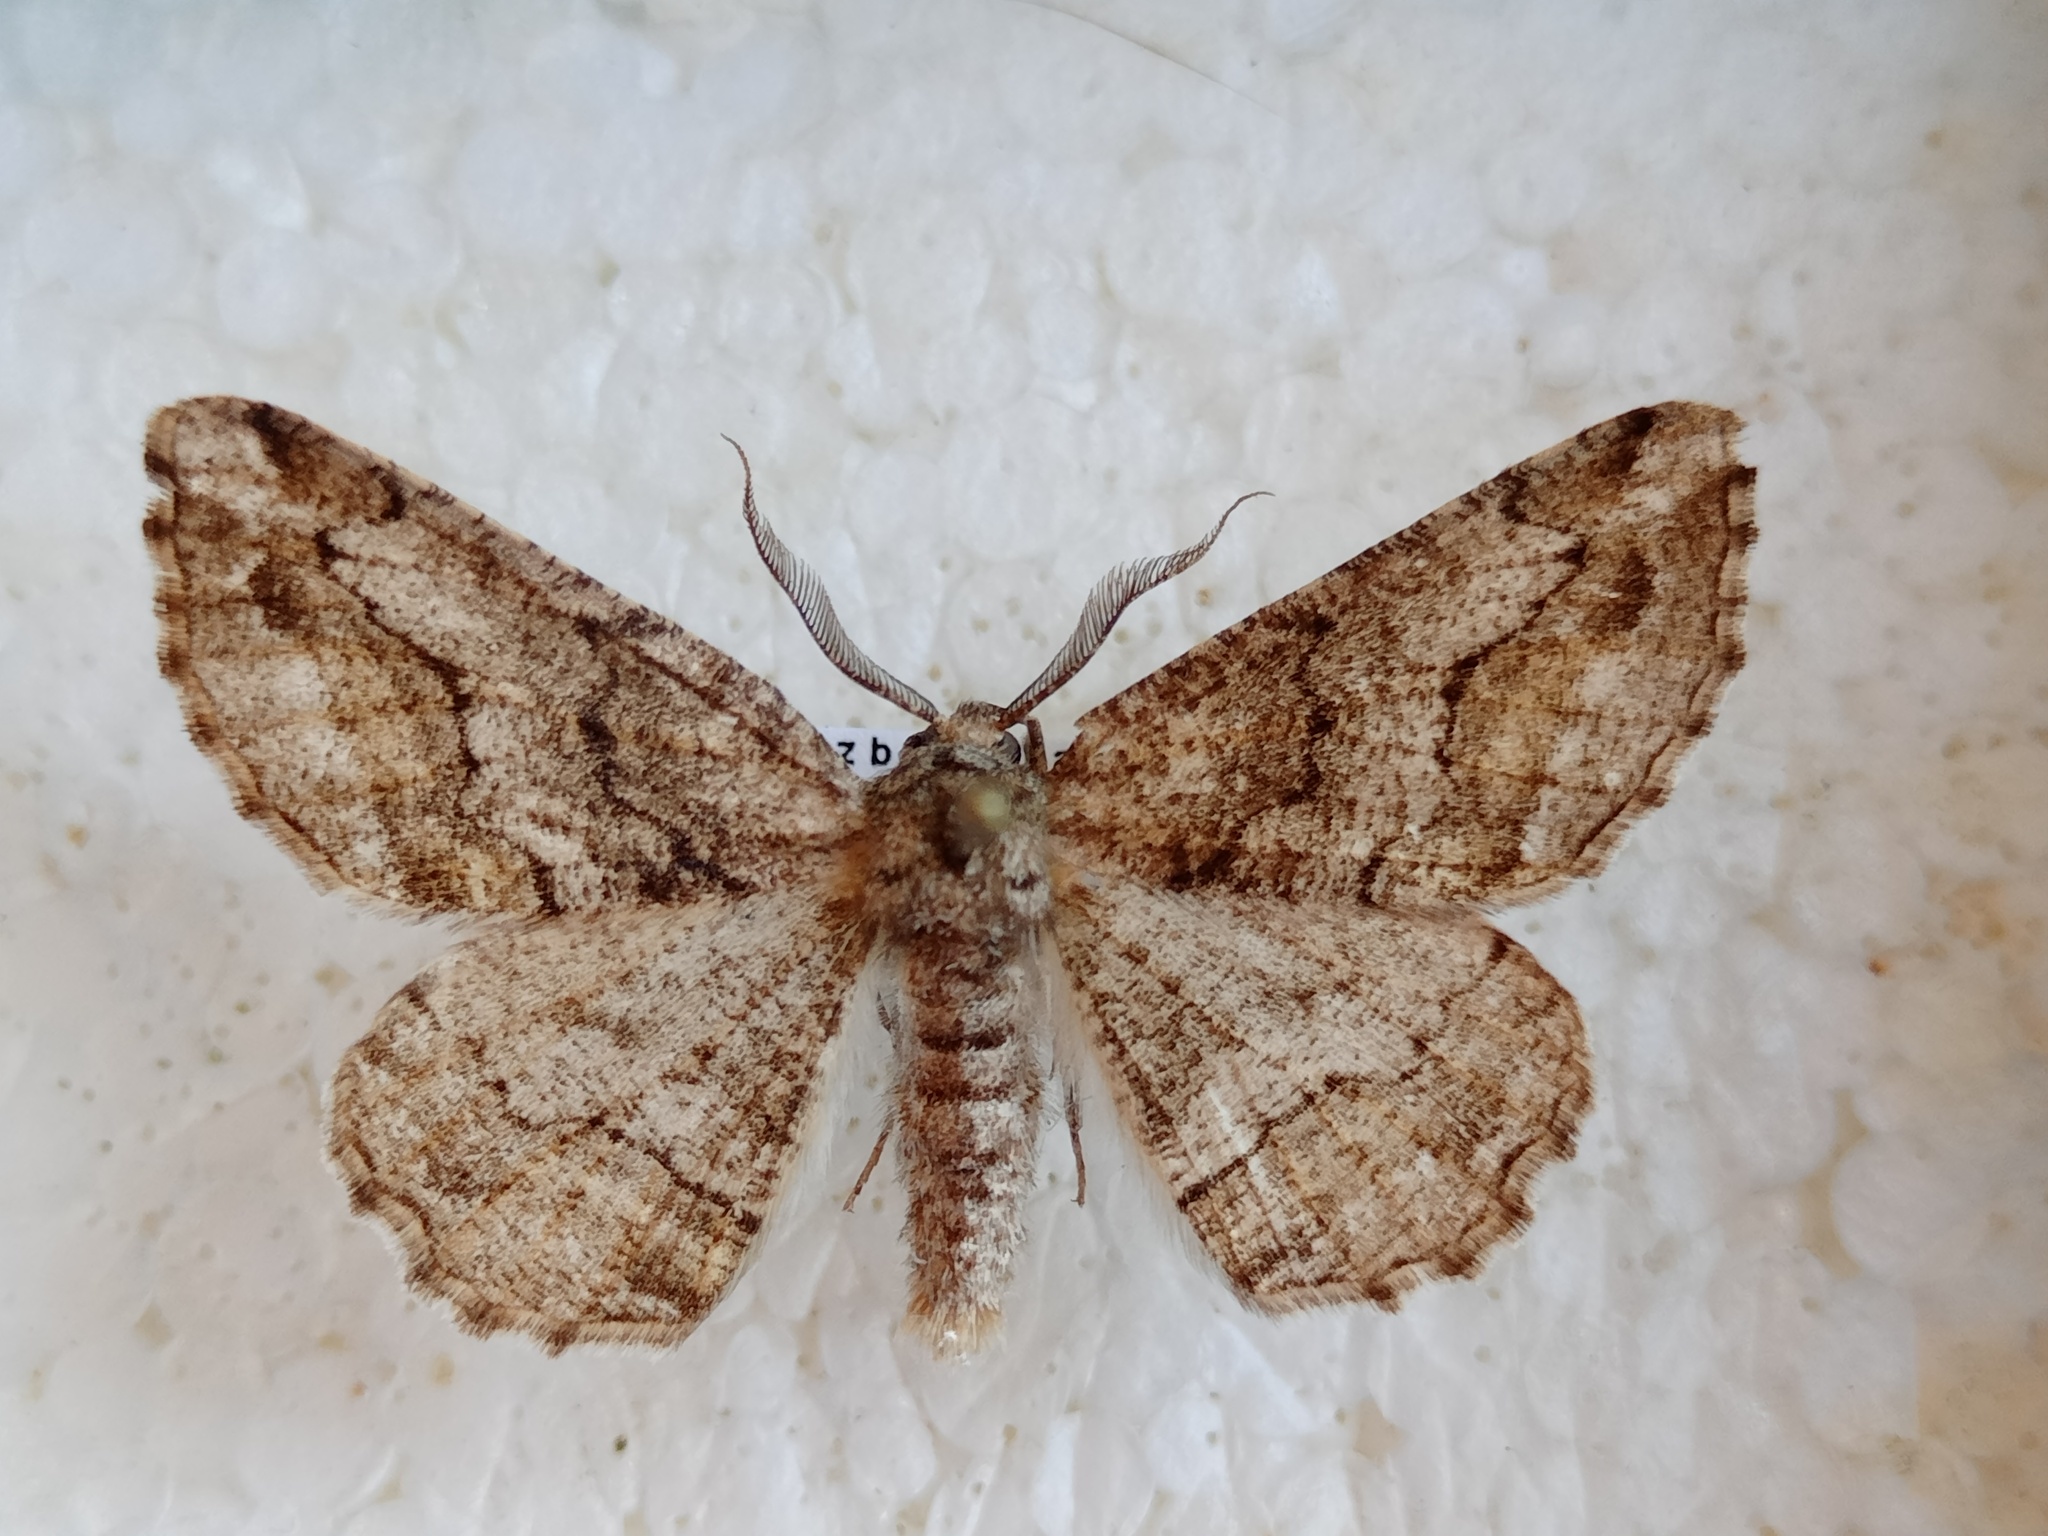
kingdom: Animalia
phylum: Arthropoda
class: Insecta
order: Lepidoptera
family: Geometridae
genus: Synopsia
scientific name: Synopsia sociaria
